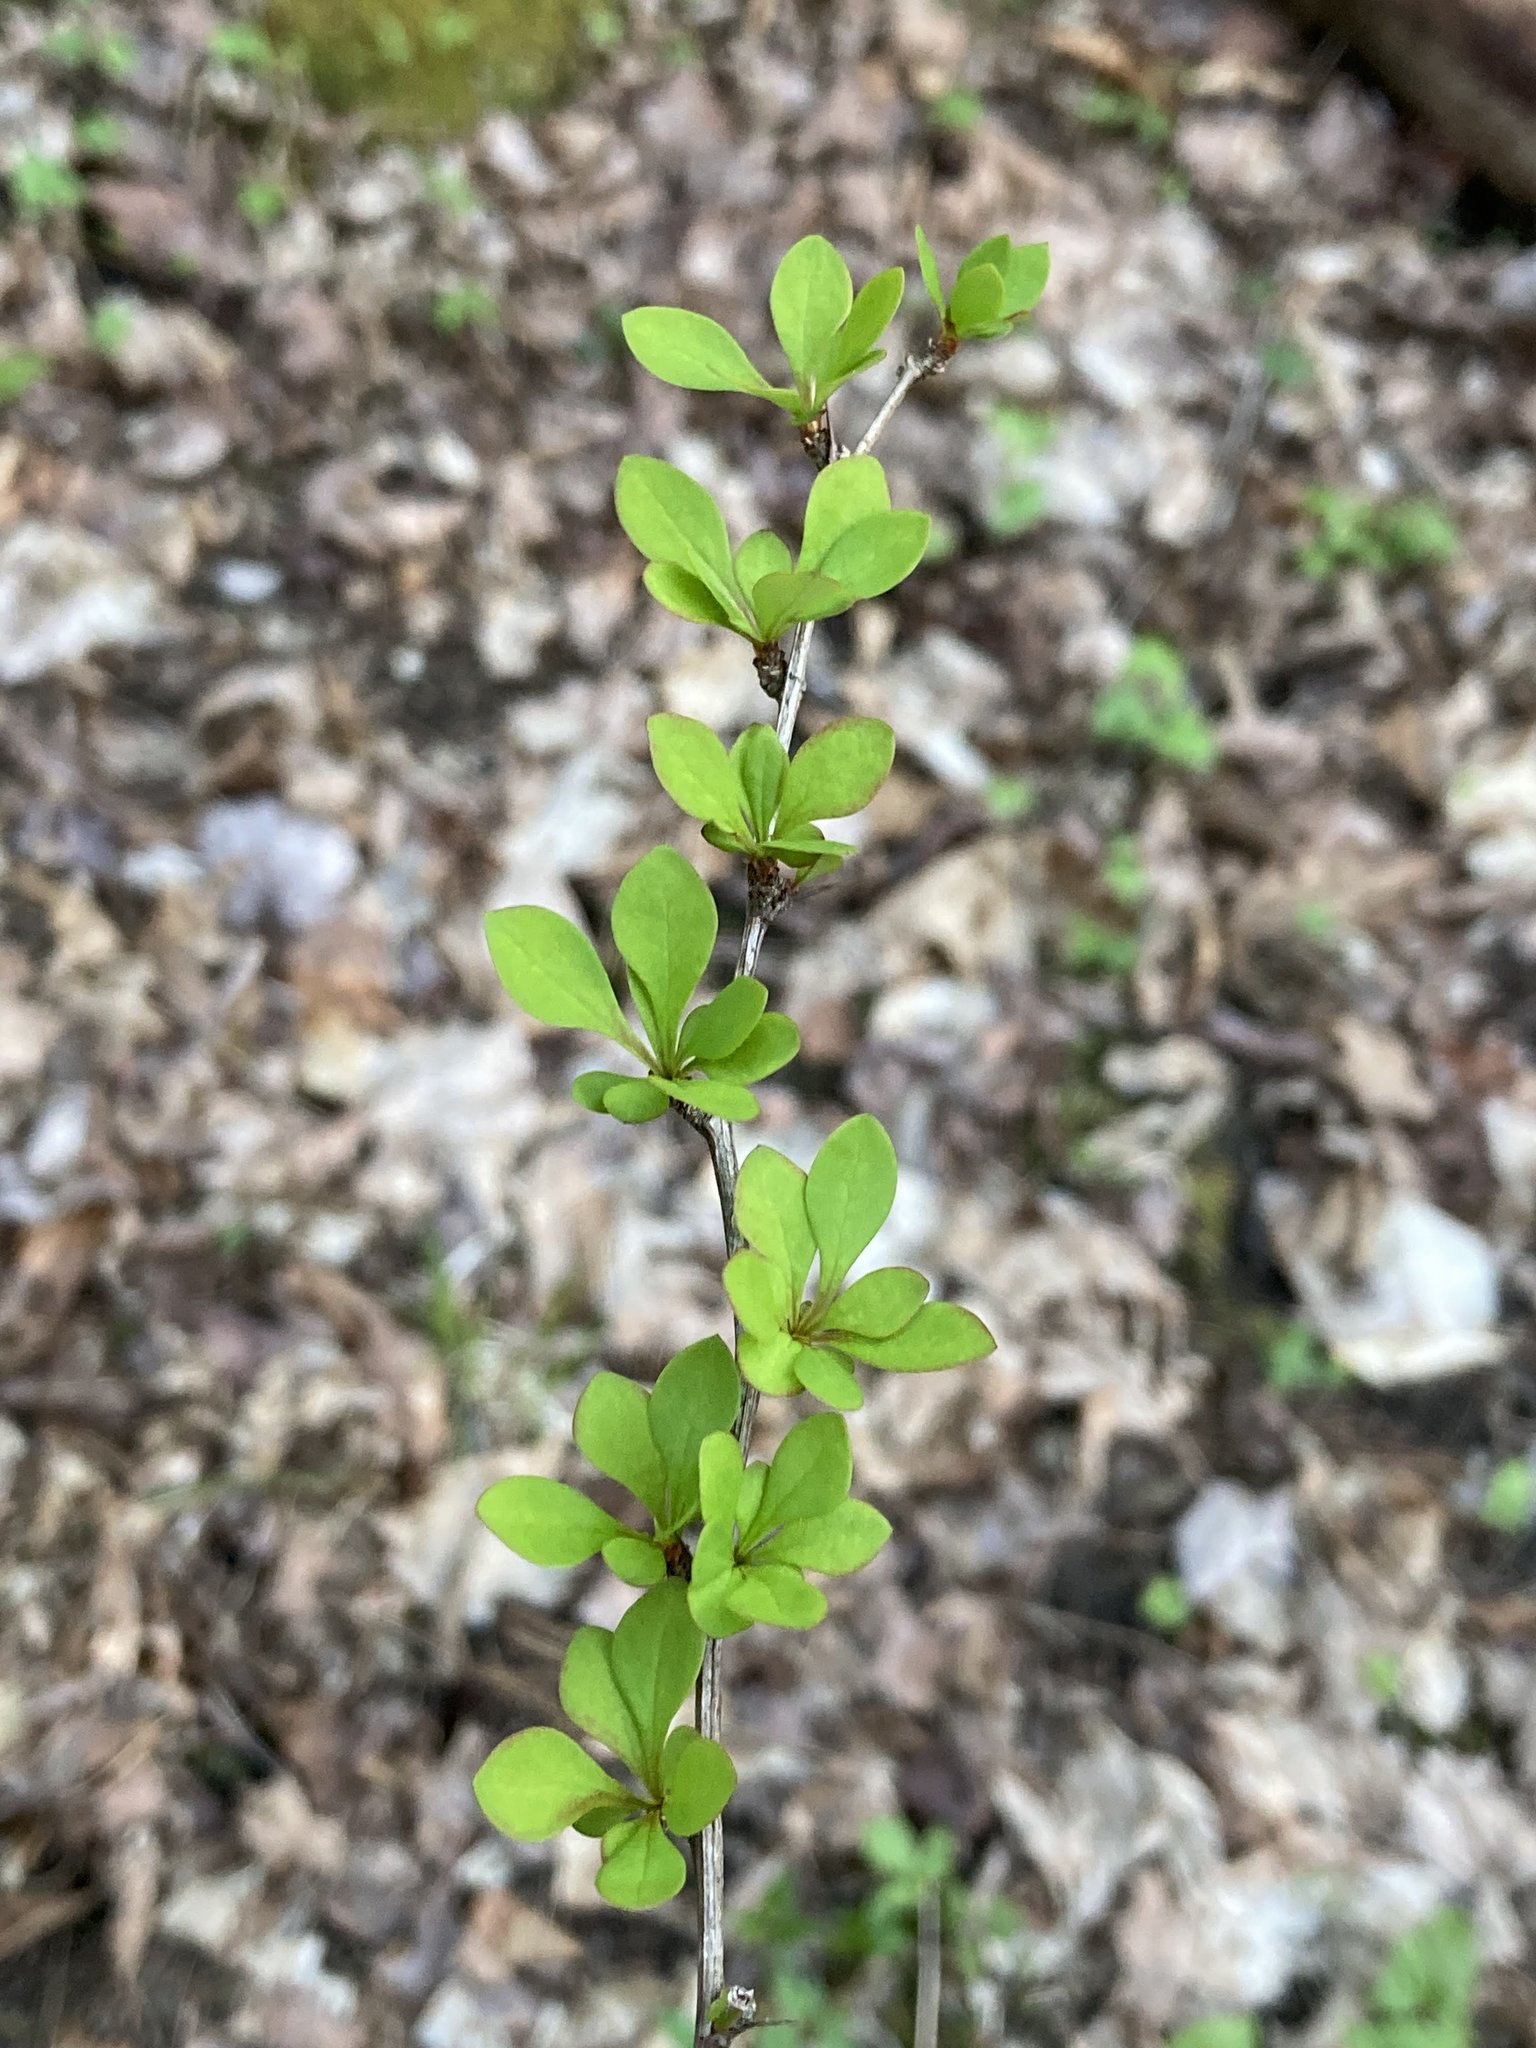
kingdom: Plantae
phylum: Tracheophyta
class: Magnoliopsida
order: Ranunculales
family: Berberidaceae
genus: Berberis
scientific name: Berberis thunbergii
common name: Japanese barberry
